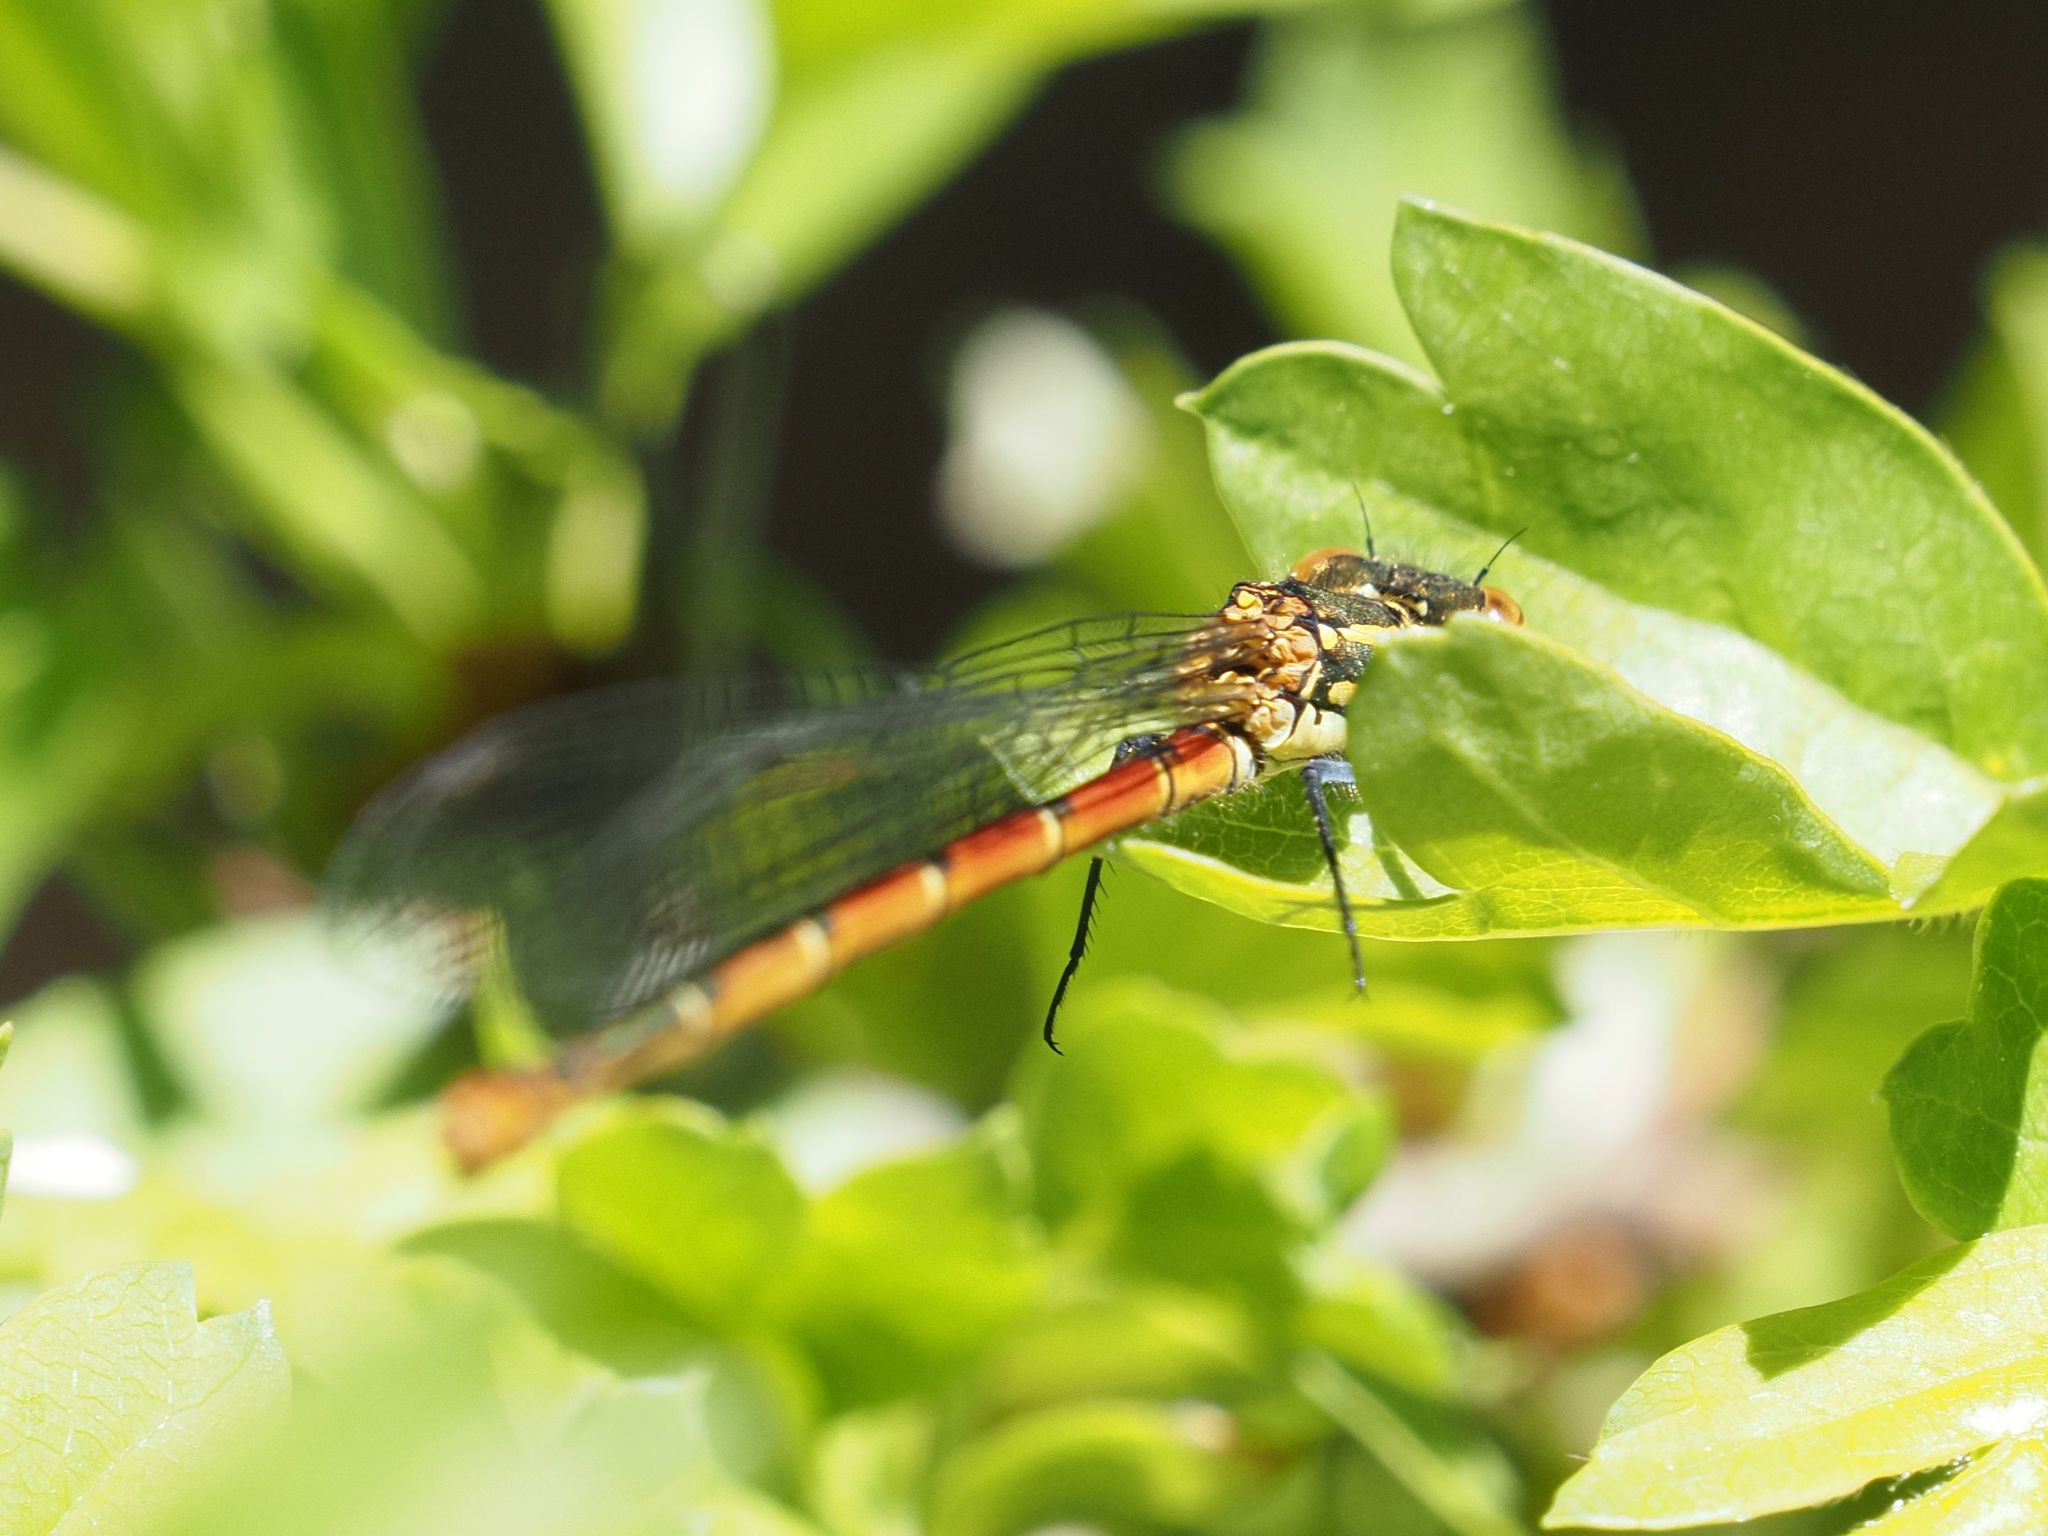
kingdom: Animalia
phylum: Arthropoda
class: Insecta
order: Odonata
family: Coenagrionidae
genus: Pyrrhosoma
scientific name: Pyrrhosoma nymphula
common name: Large red damsel
